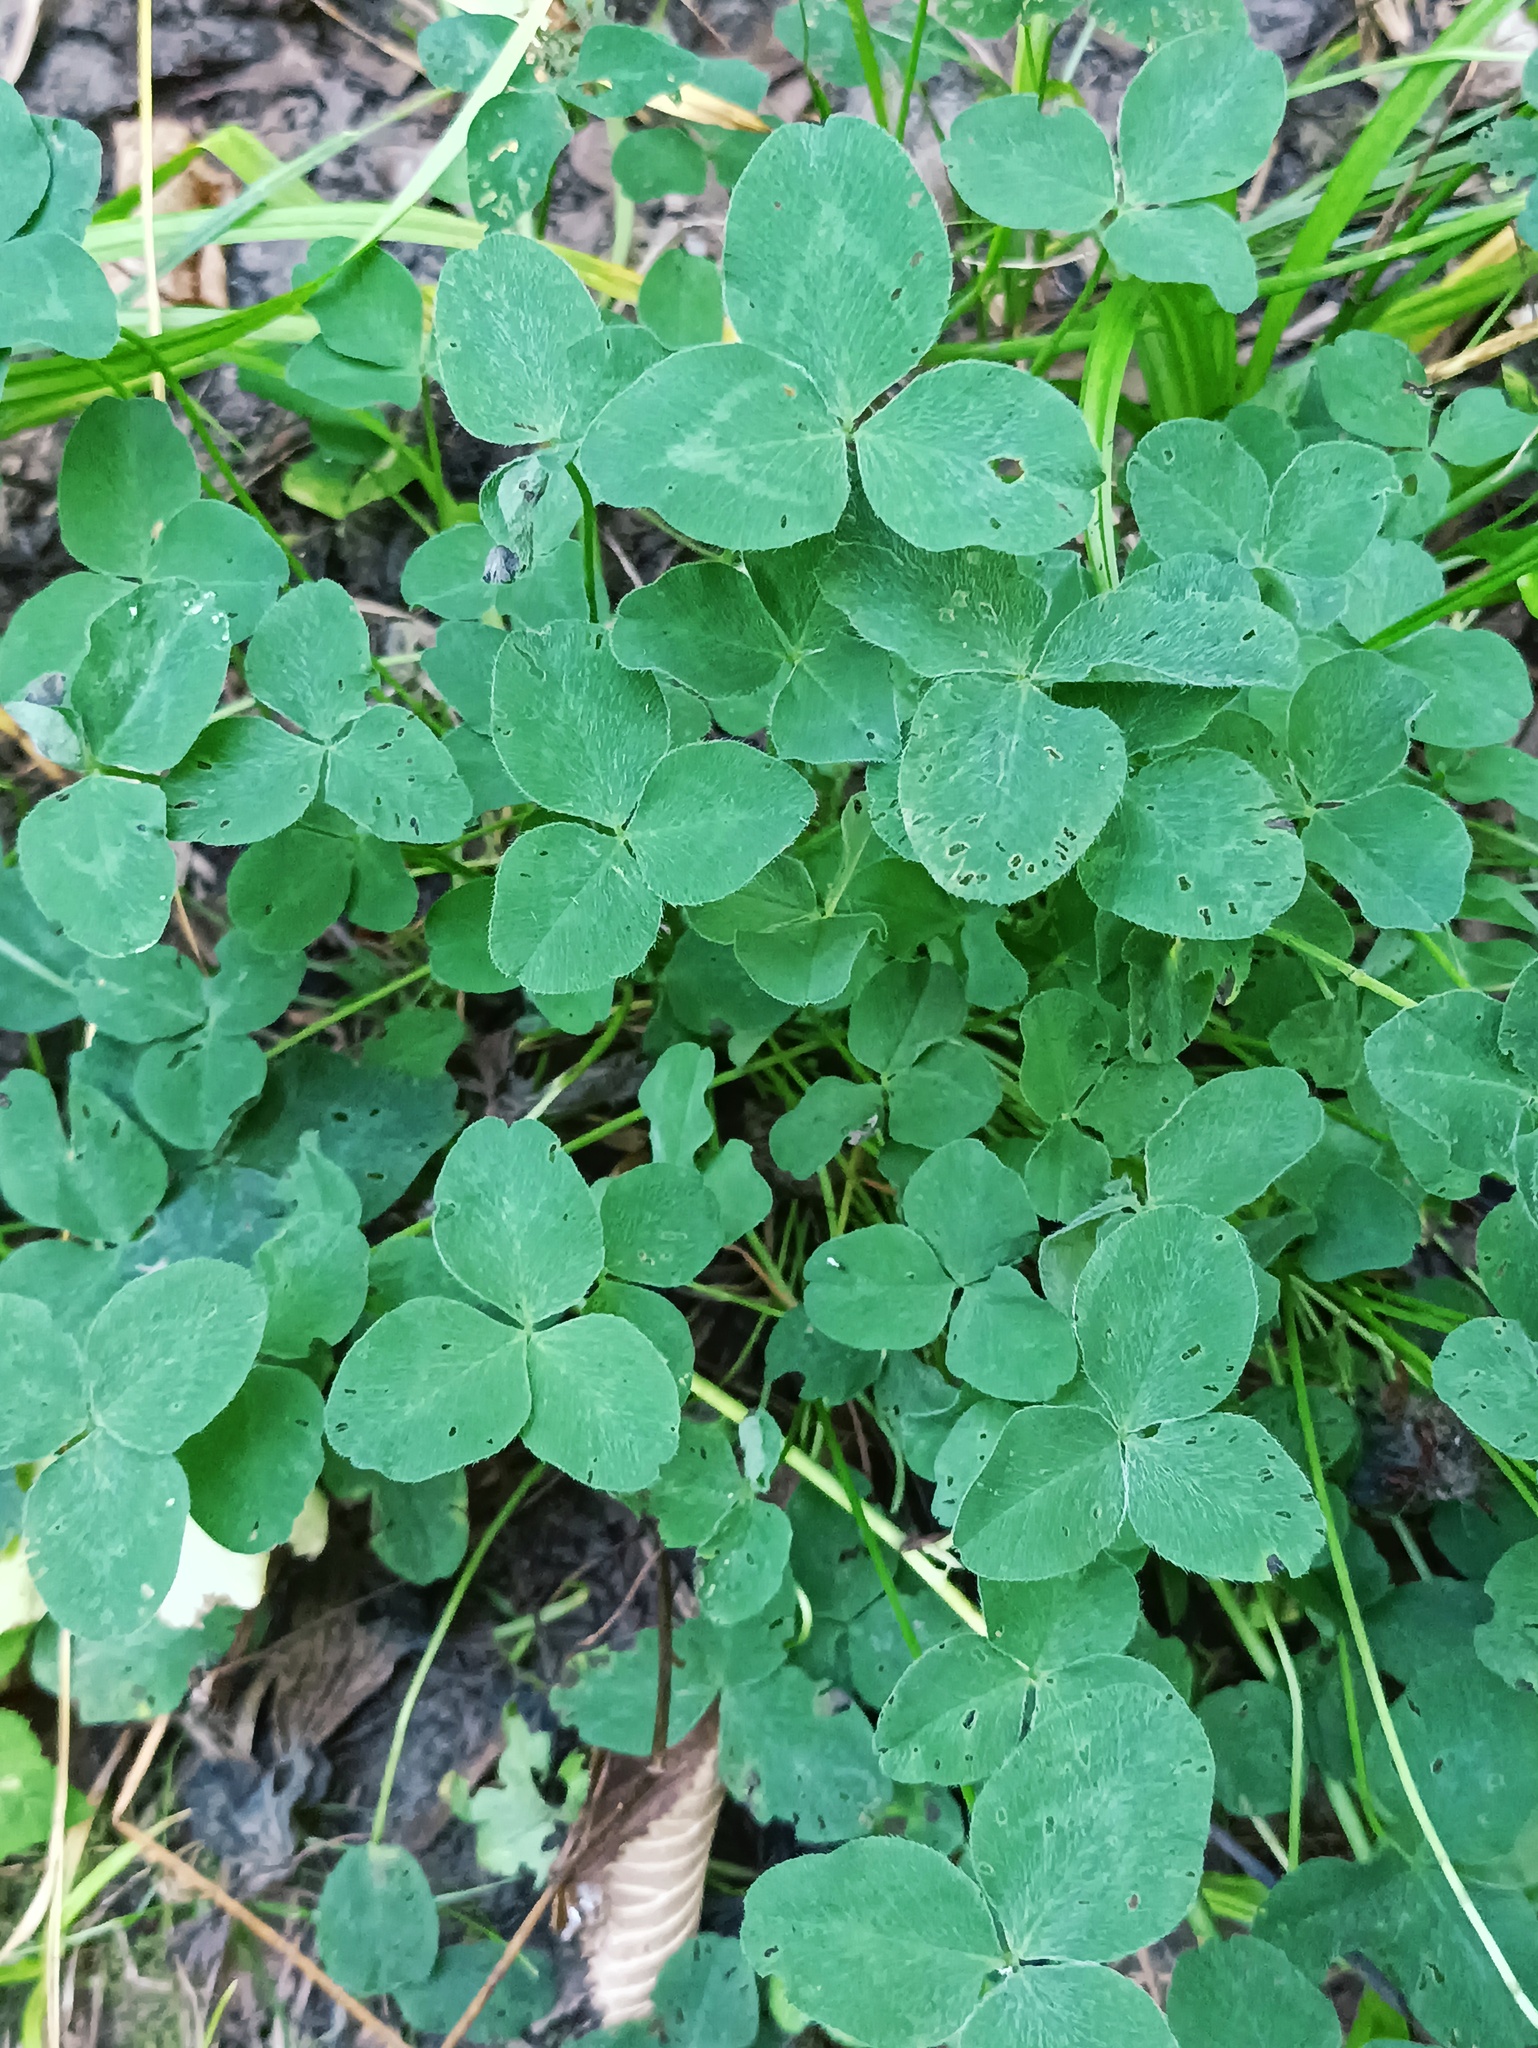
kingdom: Plantae
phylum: Tracheophyta
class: Magnoliopsida
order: Fabales
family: Fabaceae
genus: Trifolium
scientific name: Trifolium repens
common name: White clover
